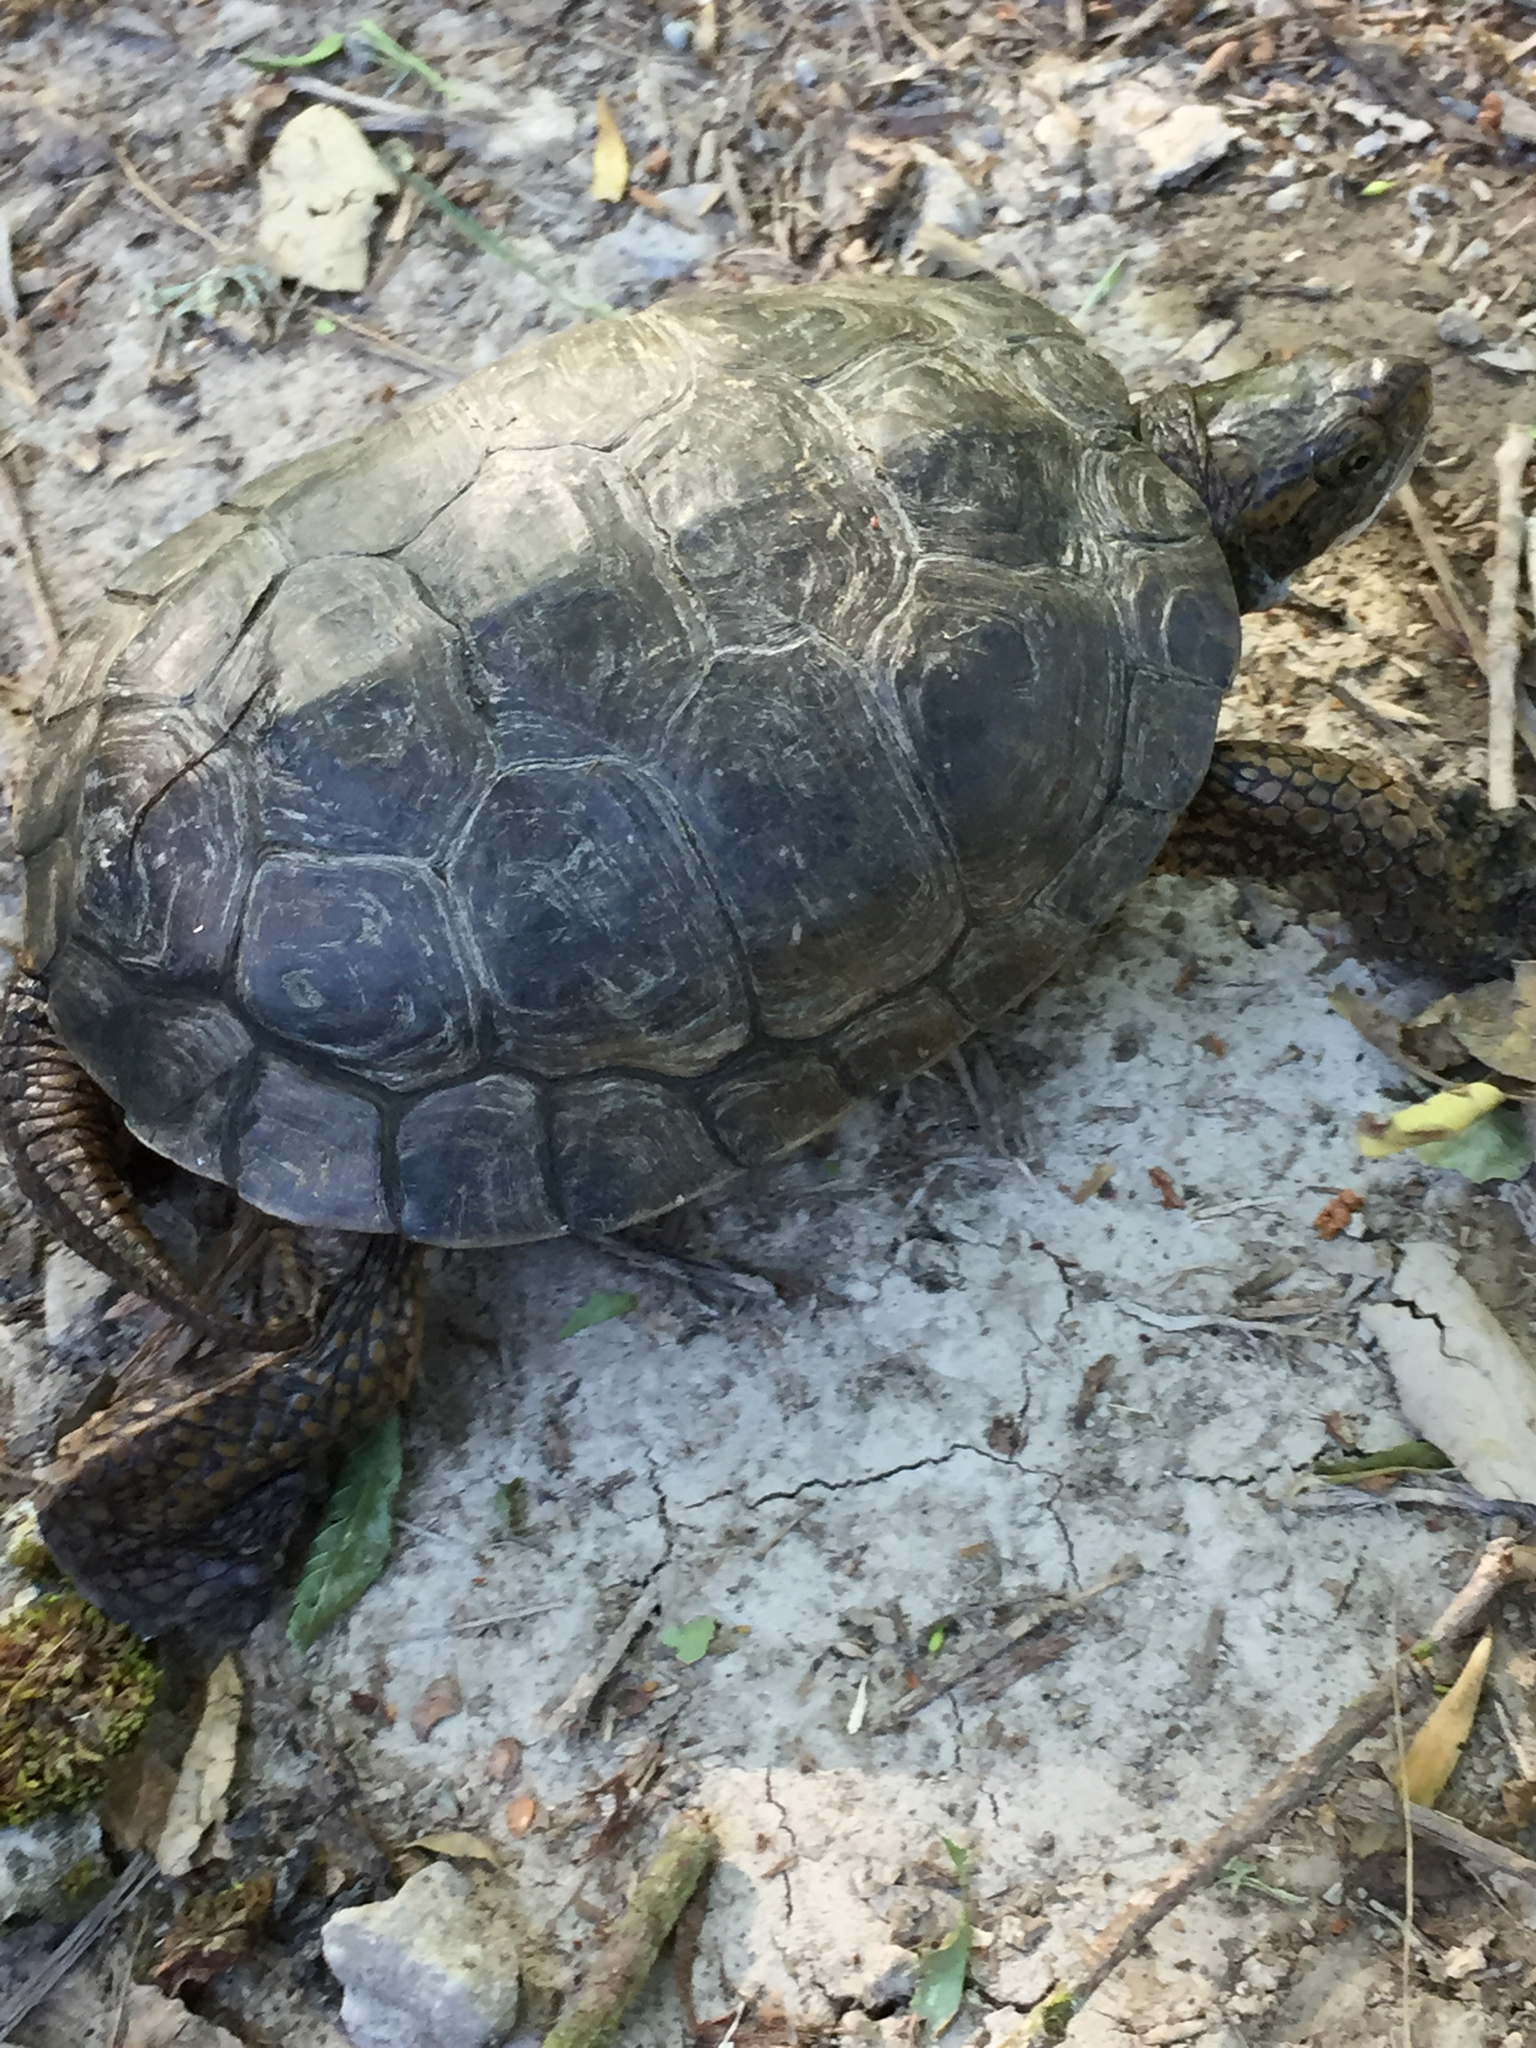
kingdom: Animalia
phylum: Chordata
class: Testudines
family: Emydidae
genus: Actinemys
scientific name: Actinemys marmorata
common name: Western pond turtle
